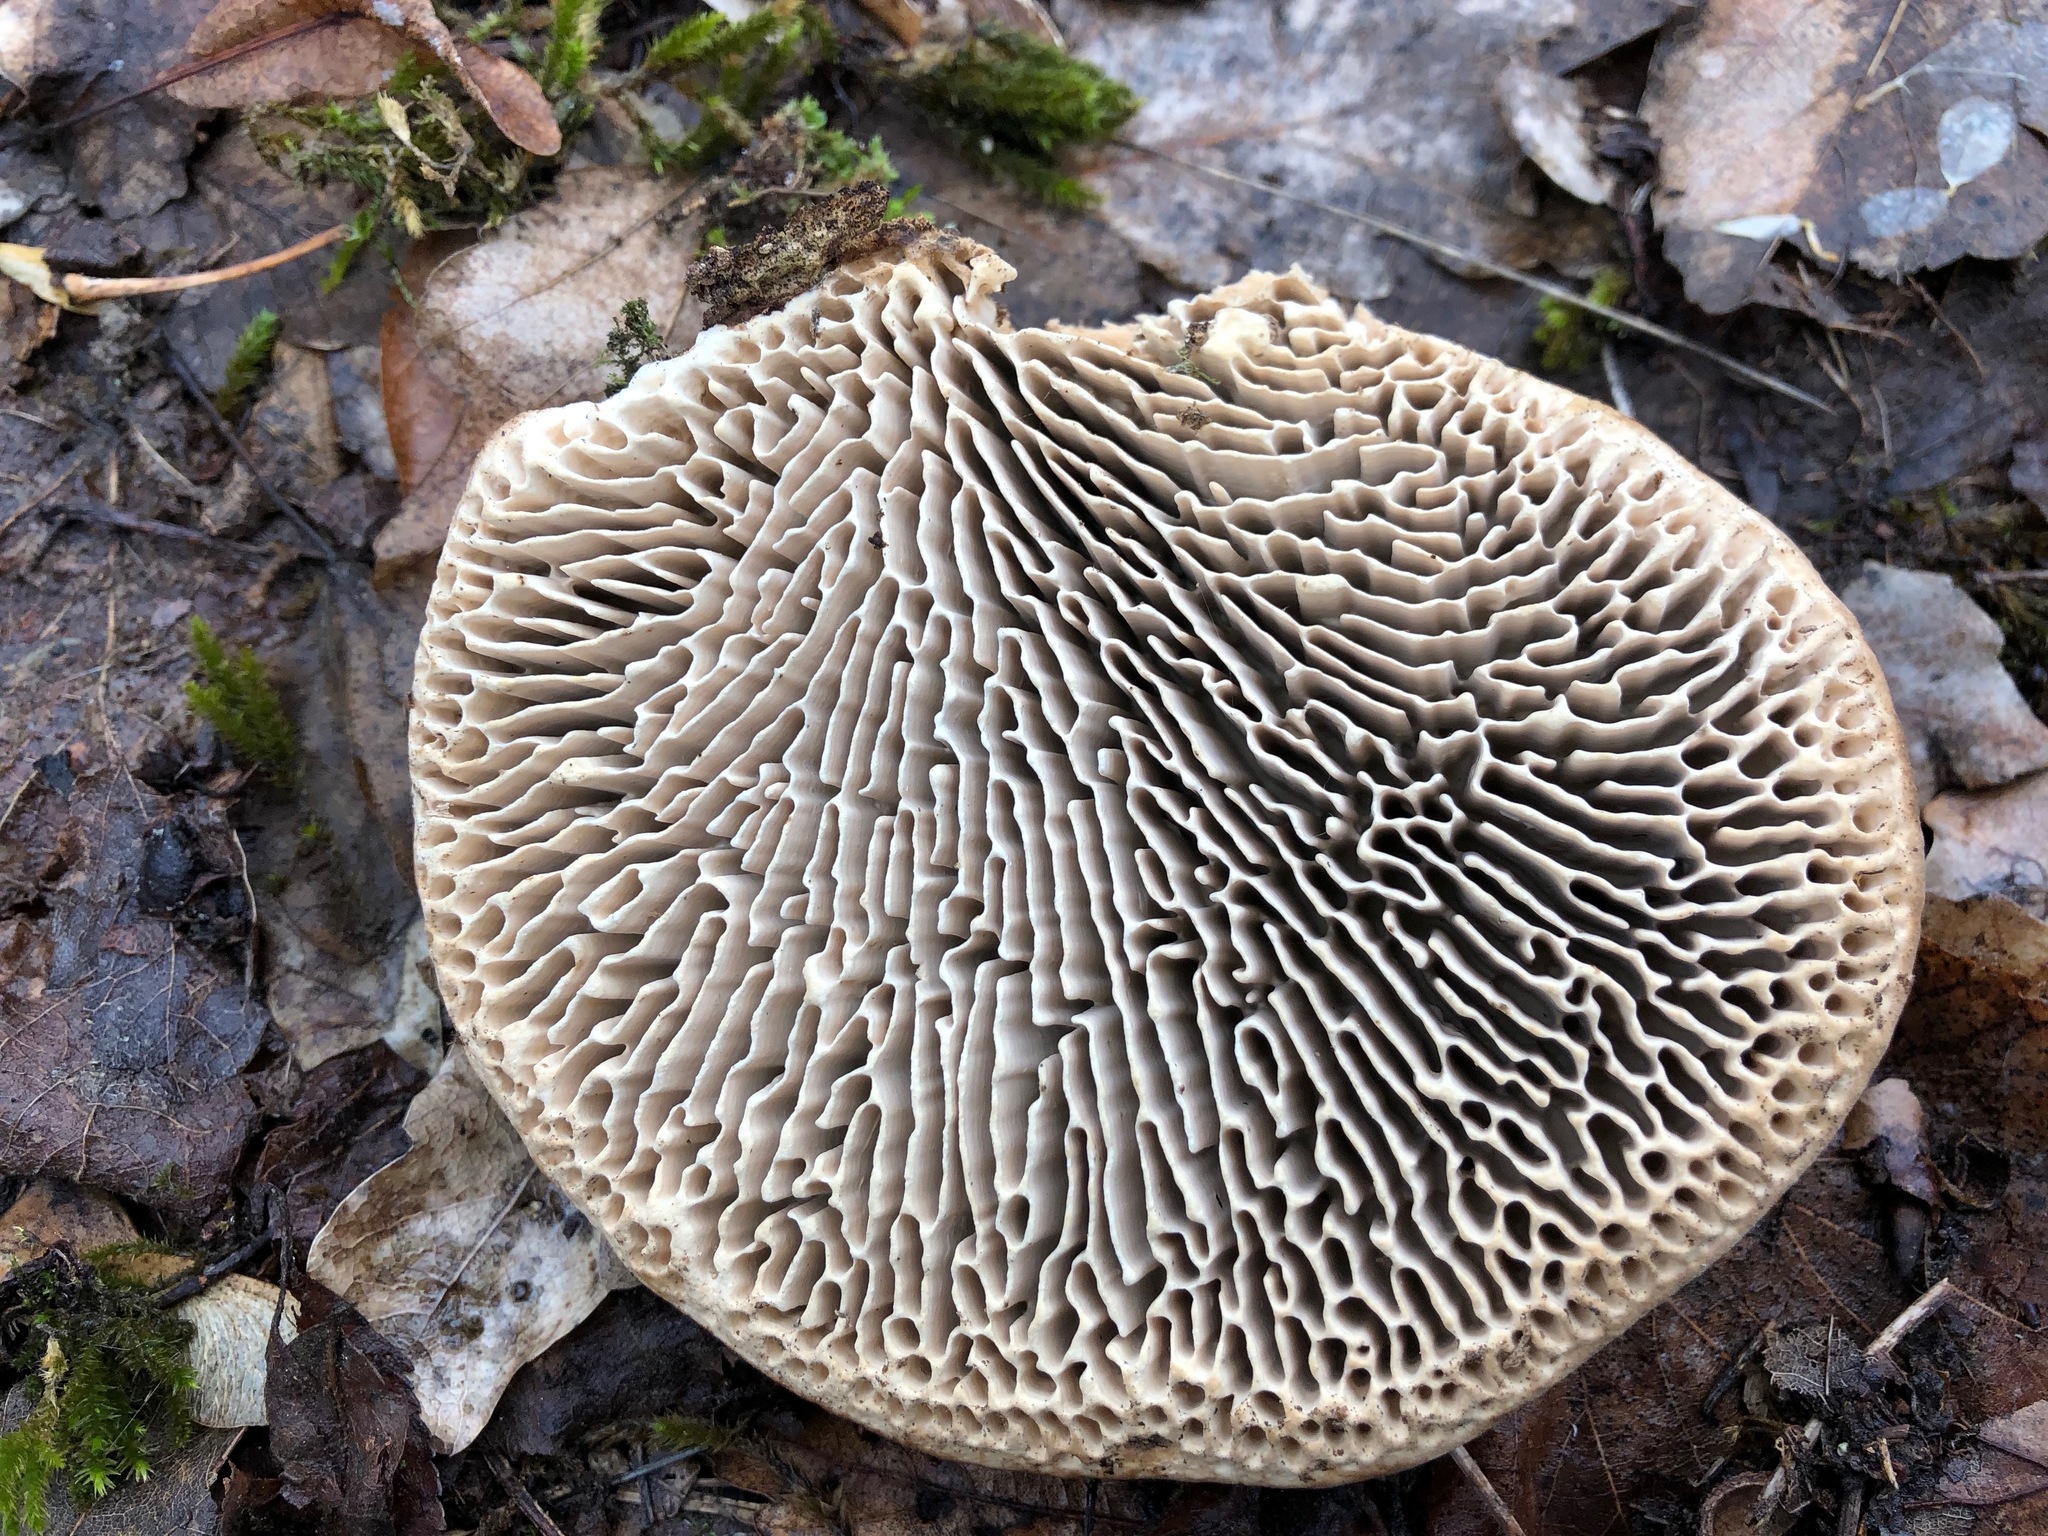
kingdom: Fungi
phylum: Basidiomycota
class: Agaricomycetes
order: Polyporales
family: Fomitopsidaceae
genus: Fomitopsis
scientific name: Fomitopsis
